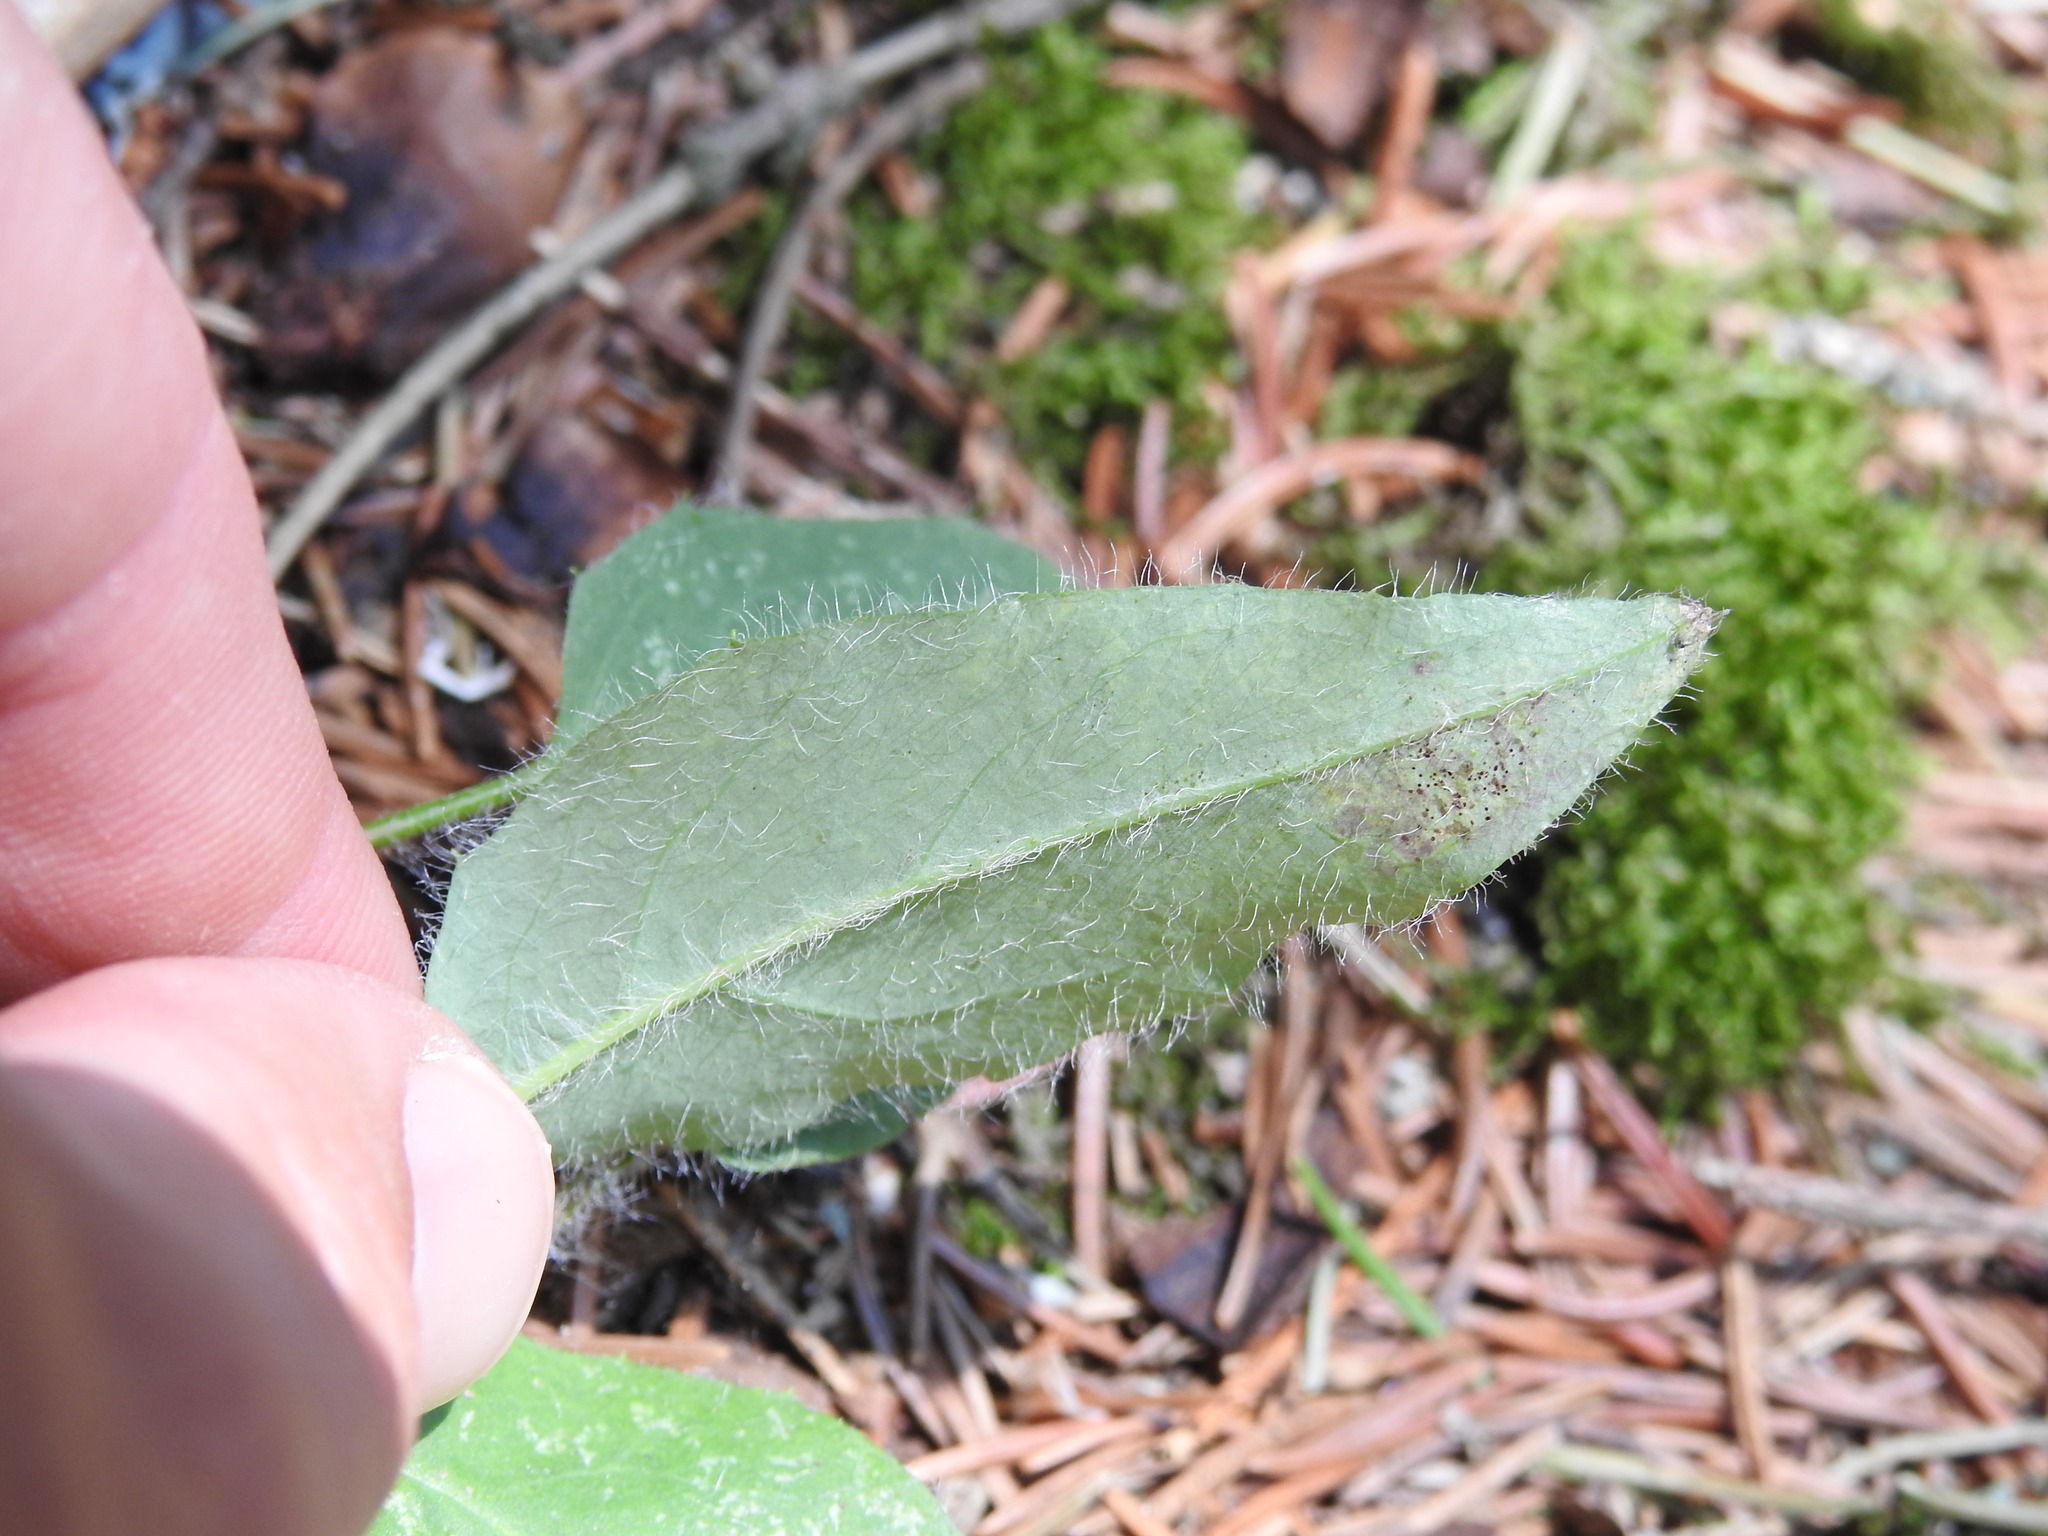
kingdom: Plantae
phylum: Tracheophyta
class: Magnoliopsida
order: Asterales
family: Asteraceae
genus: Hieracium
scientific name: Hieracium murorum
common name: Wall hawkweed
